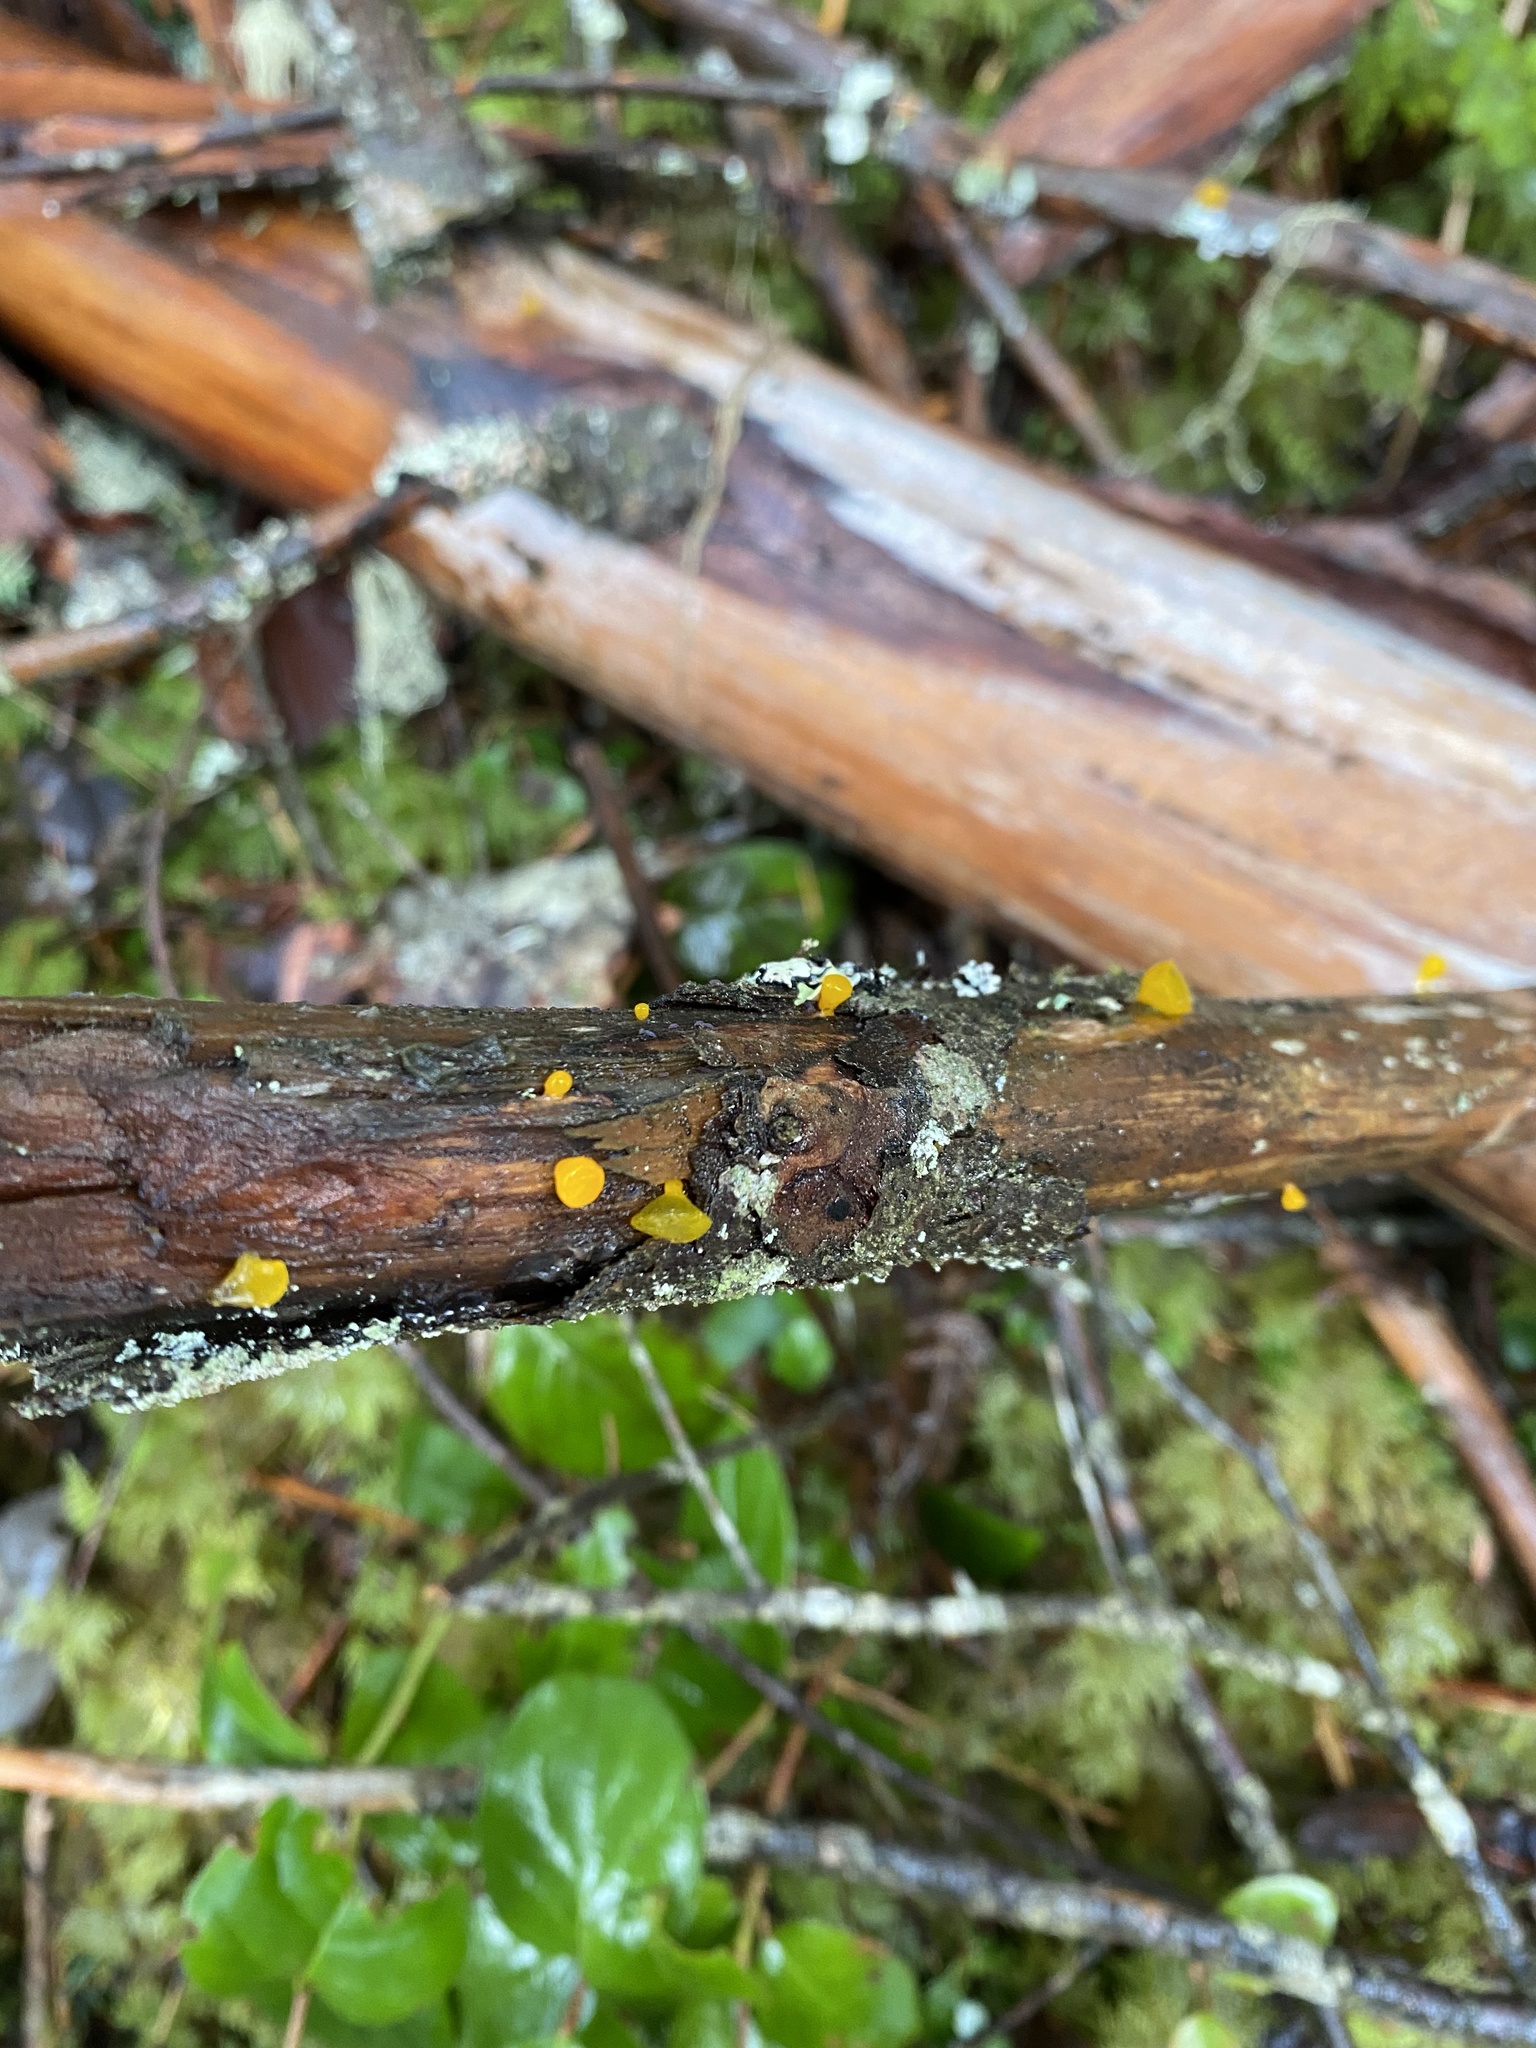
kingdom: Fungi
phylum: Basidiomycota
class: Dacrymycetes
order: Dacrymycetales
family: Dacrymycetaceae
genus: Guepiniopsis
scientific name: Guepiniopsis alpina
